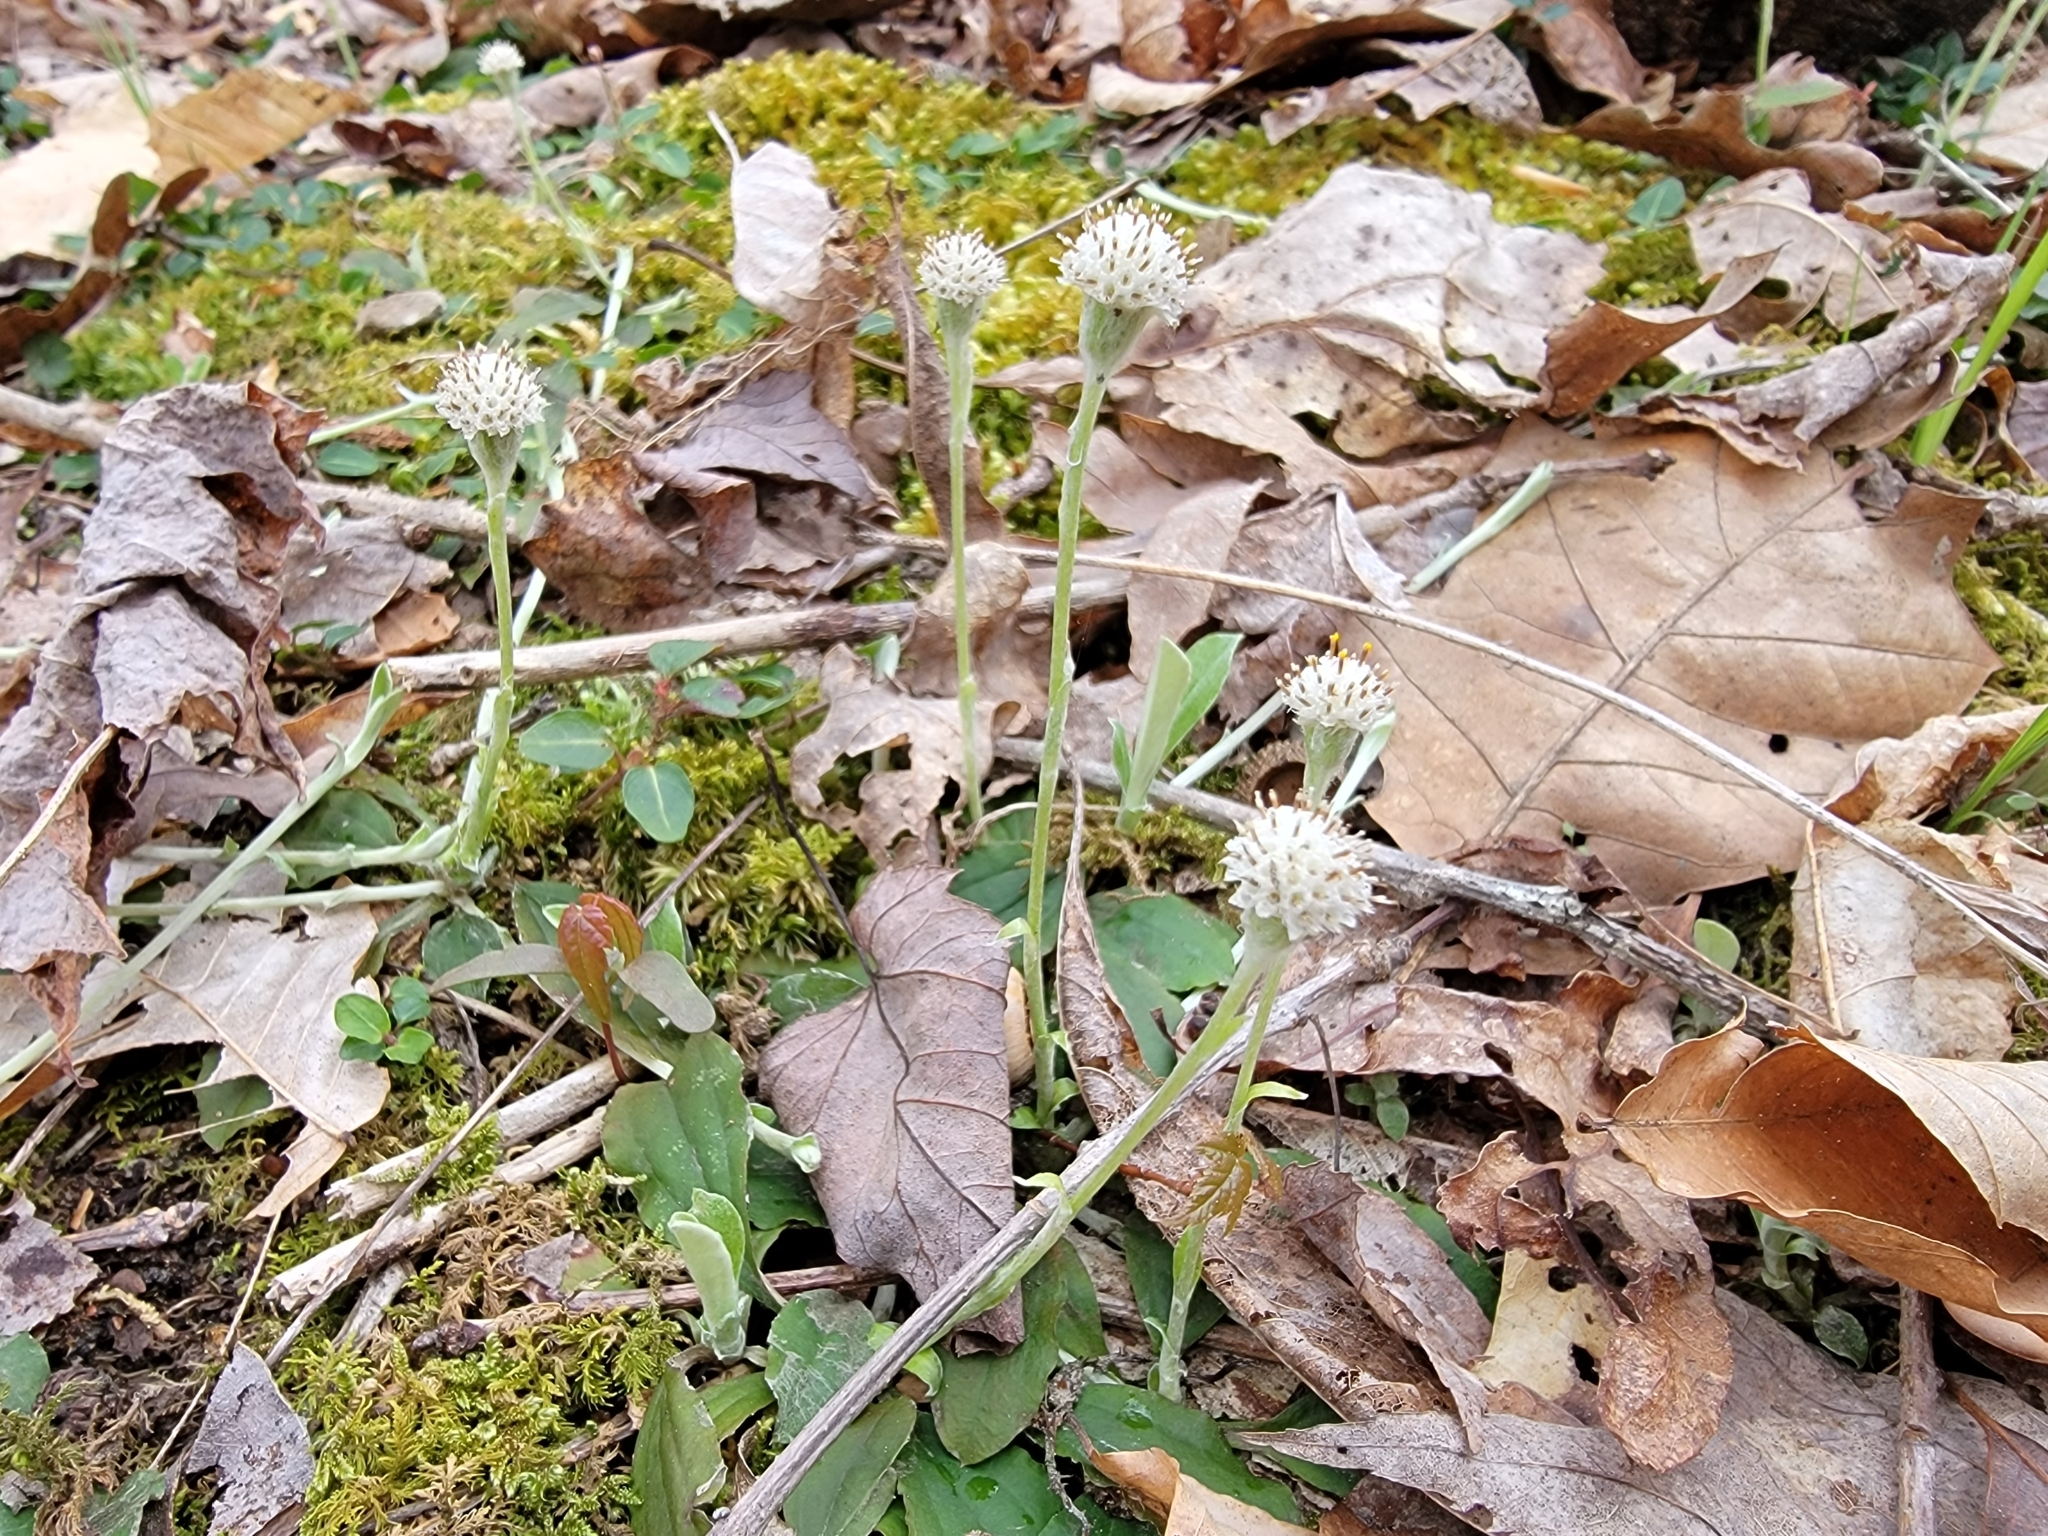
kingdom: Plantae
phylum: Tracheophyta
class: Magnoliopsida
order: Asterales
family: Asteraceae
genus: Antennaria
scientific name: Antennaria solitaria
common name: Single-head pussytoes
